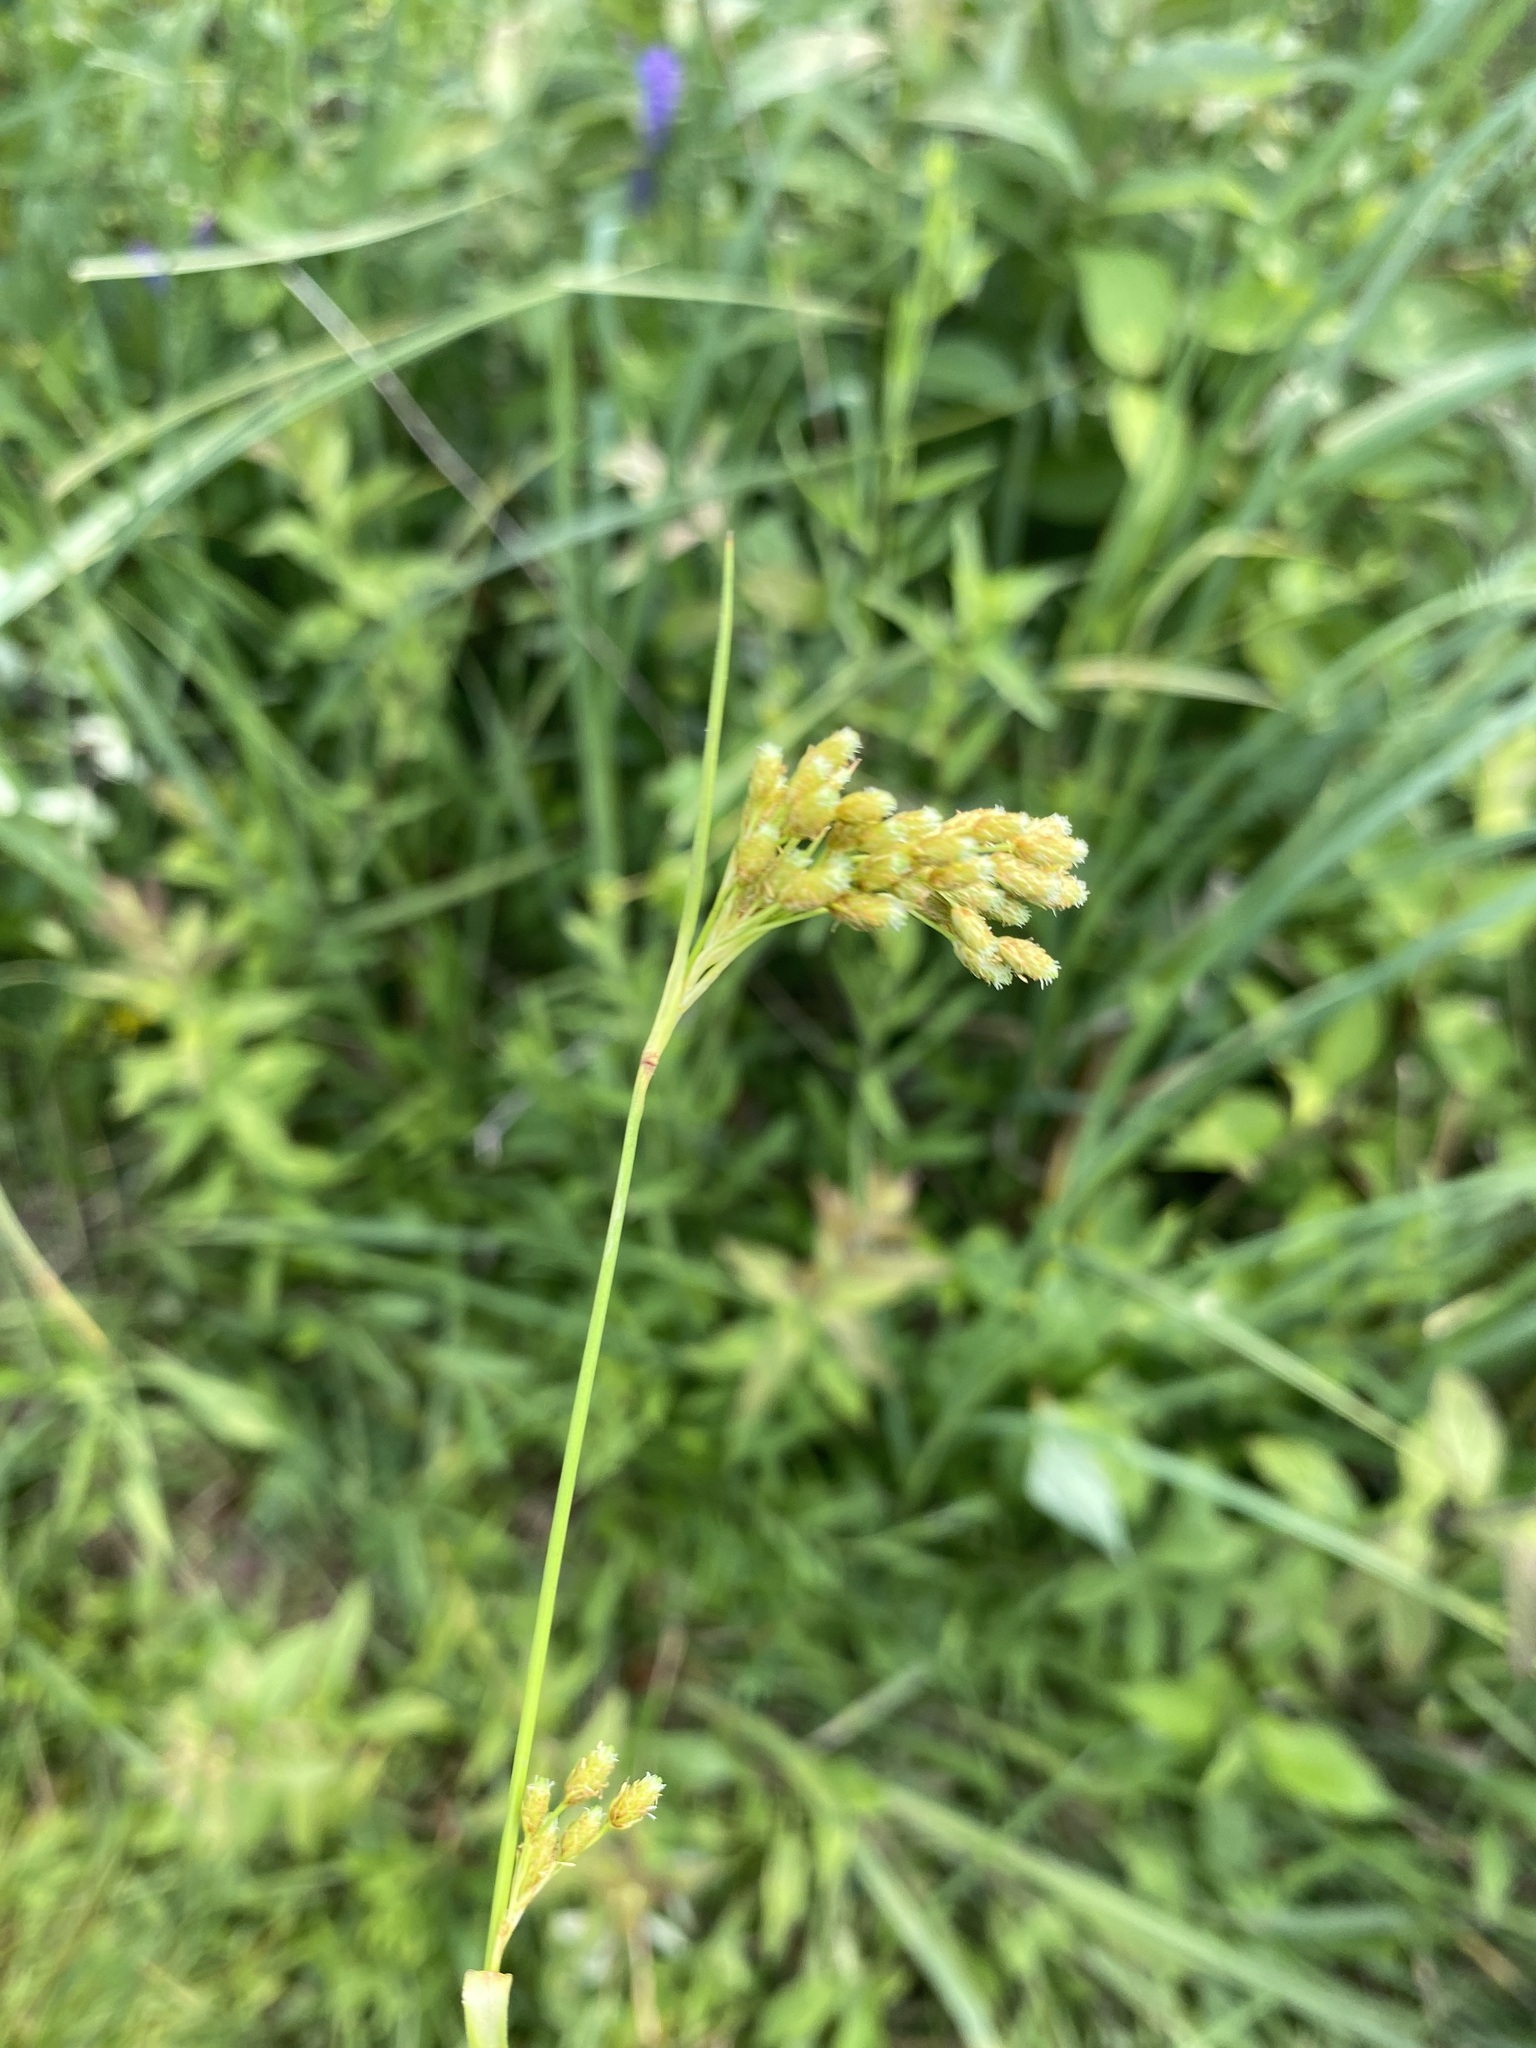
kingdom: Plantae
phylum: Tracheophyta
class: Liliopsida
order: Poales
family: Cyperaceae
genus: Scirpus
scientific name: Scirpus pendulus
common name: Nodding bulrush
